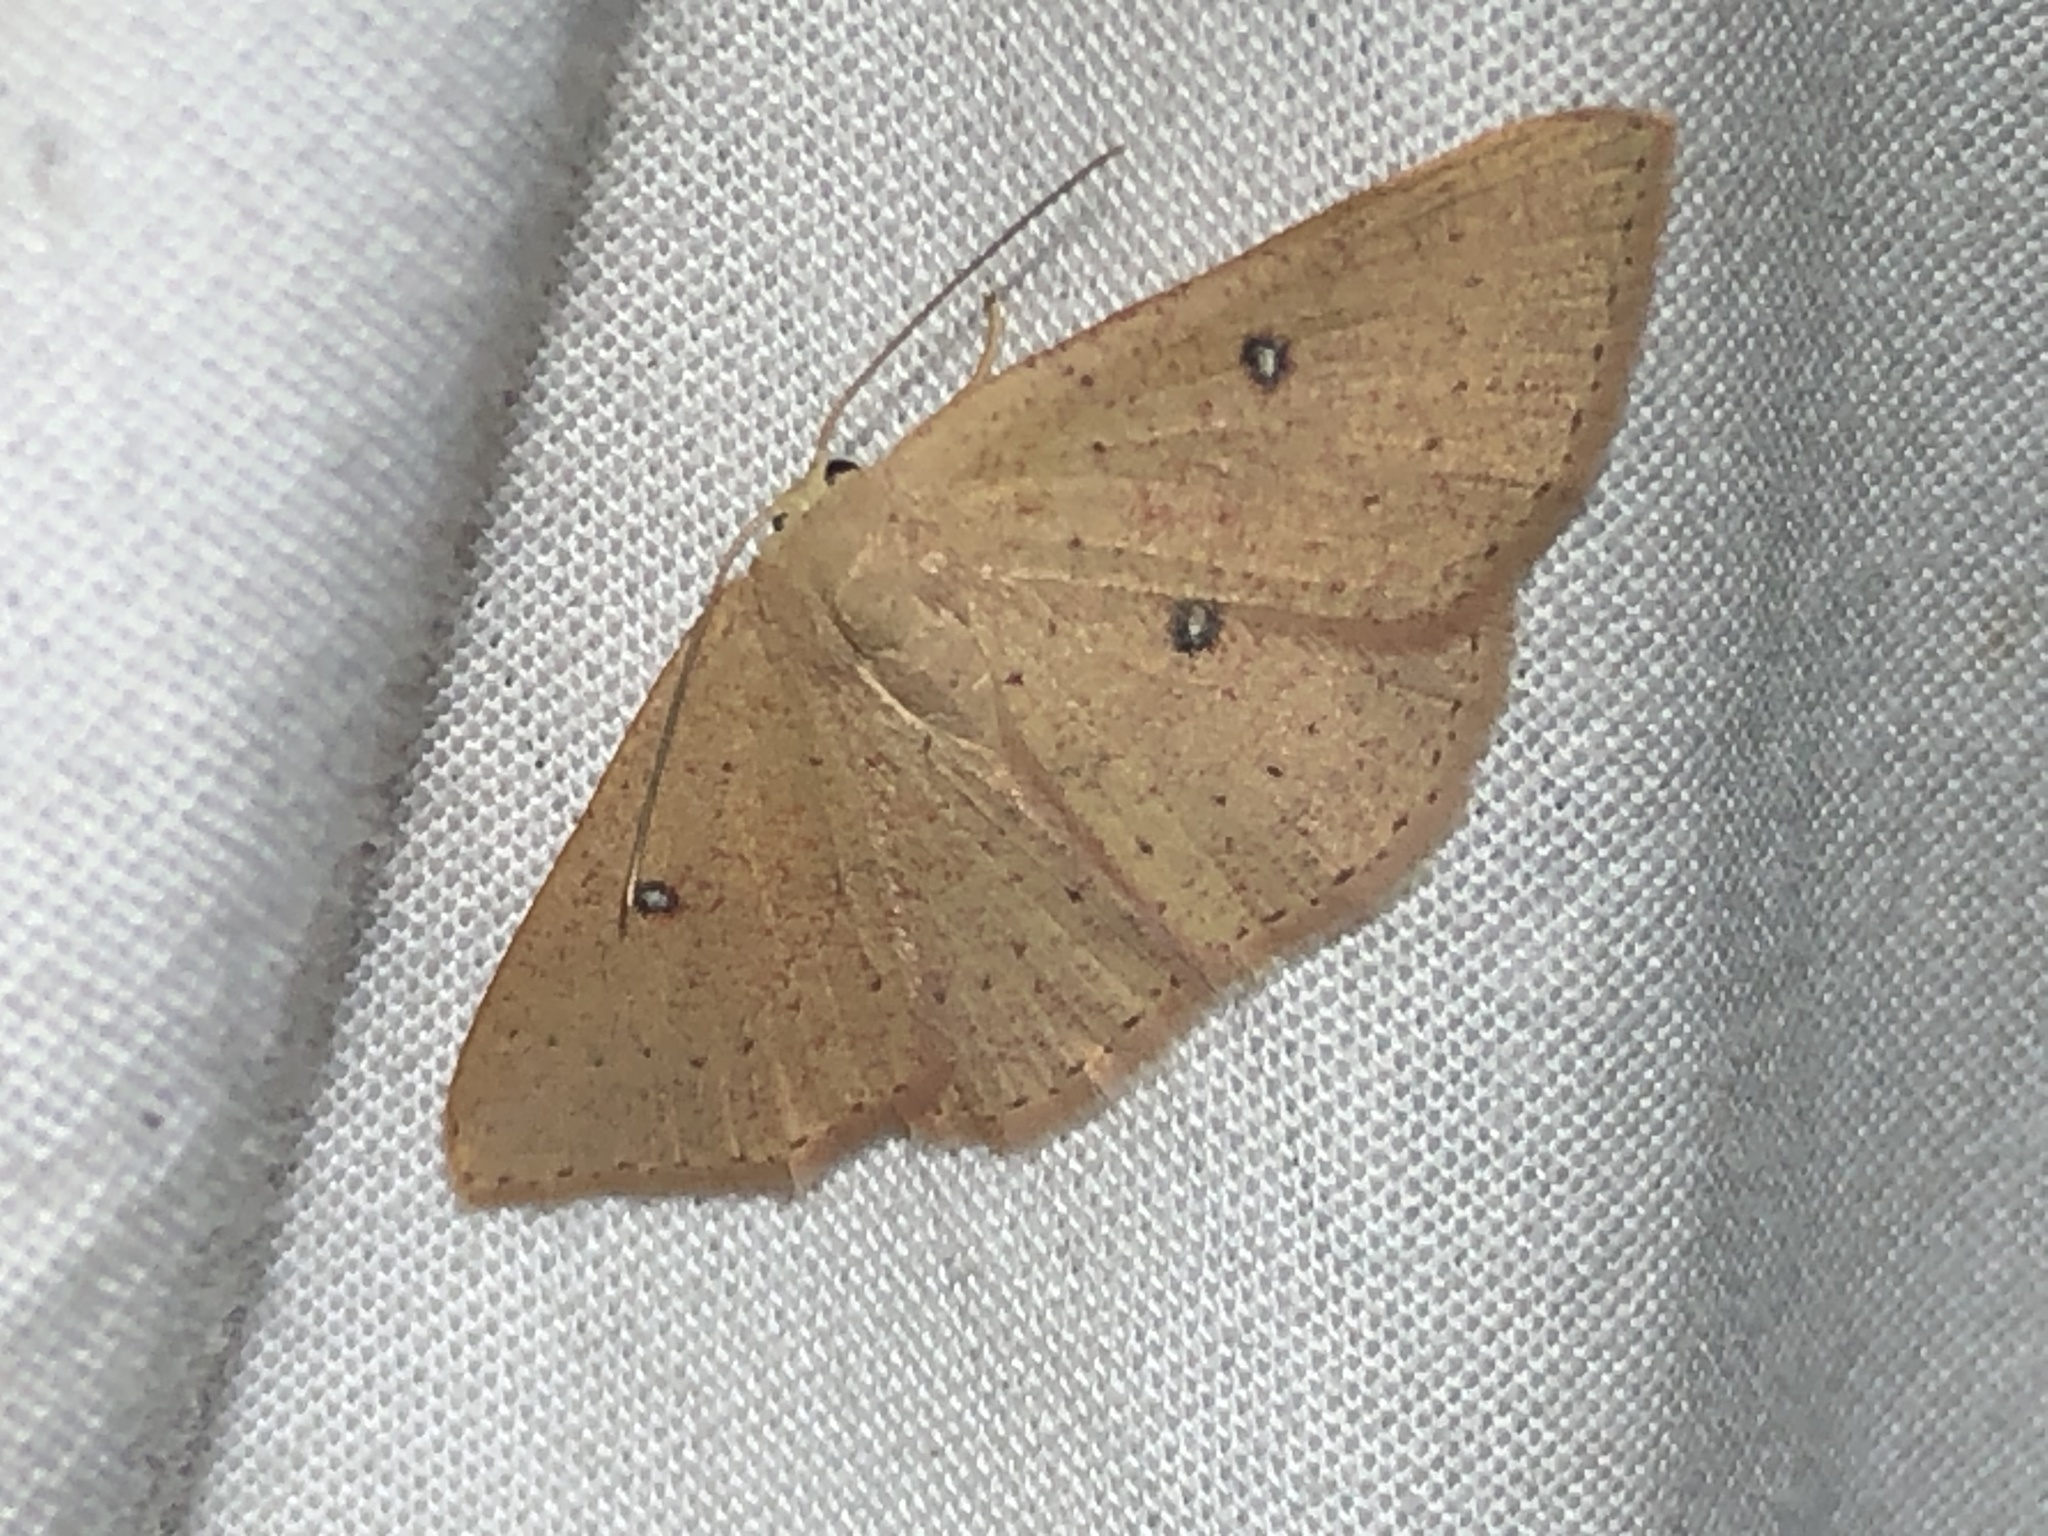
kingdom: Animalia
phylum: Arthropoda
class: Insecta
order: Lepidoptera
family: Geometridae
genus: Cyclophora
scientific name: Cyclophora dataria
